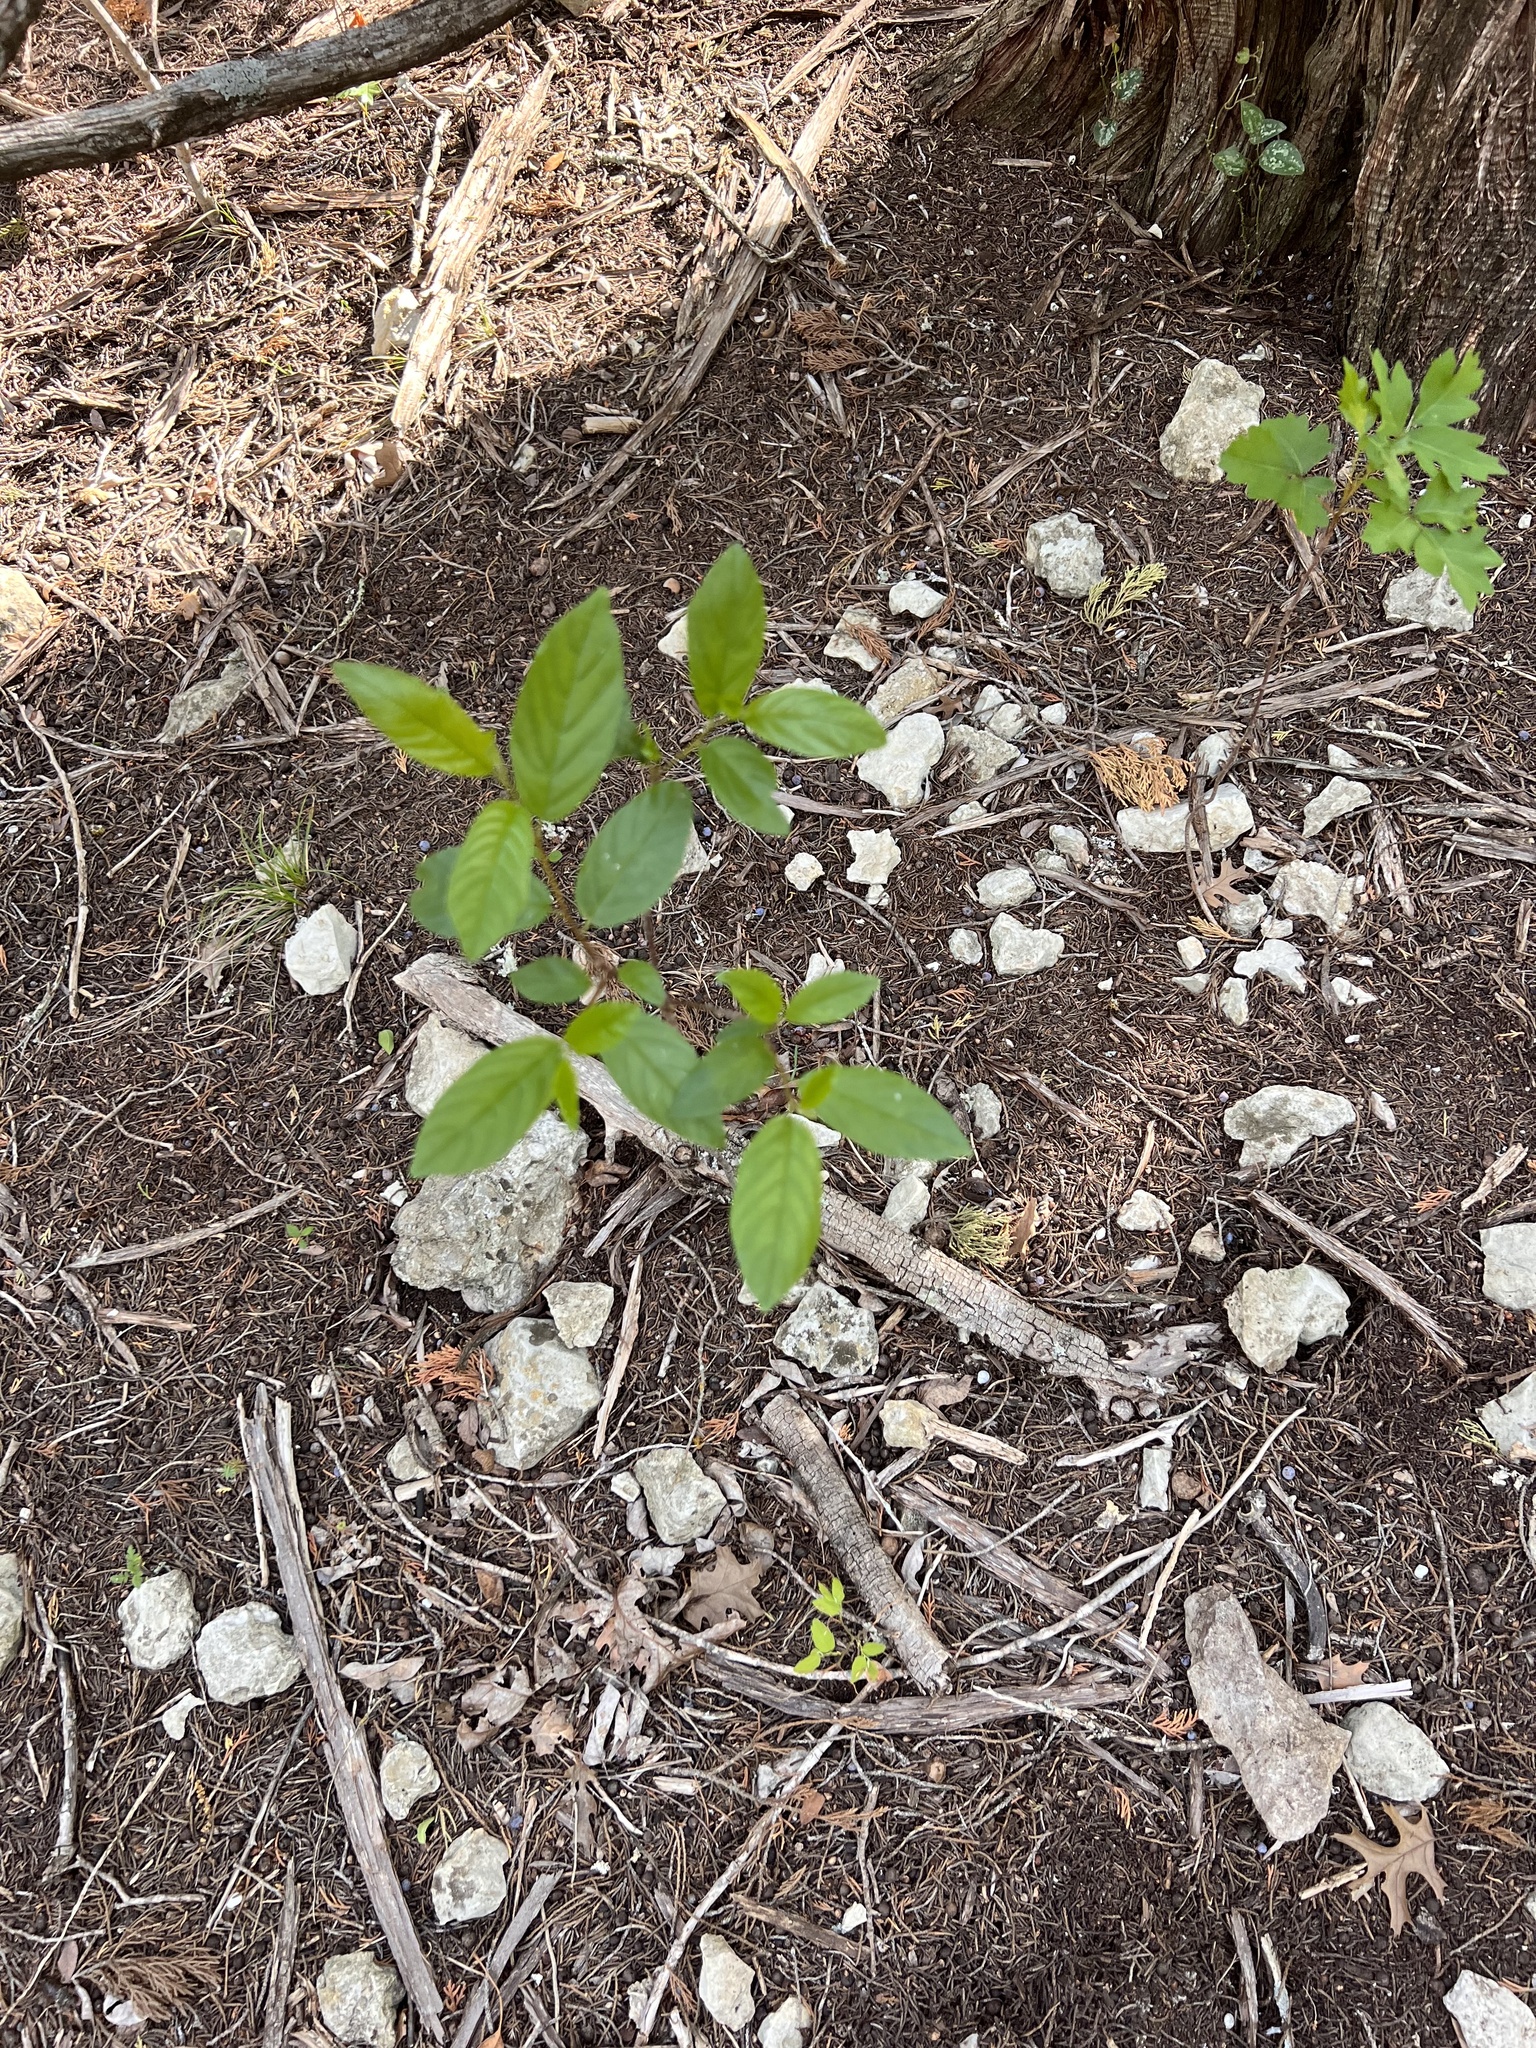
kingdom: Plantae
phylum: Tracheophyta
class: Magnoliopsida
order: Rosales
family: Rhamnaceae
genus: Frangula
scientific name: Frangula caroliniana
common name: Carolina buckthorn
